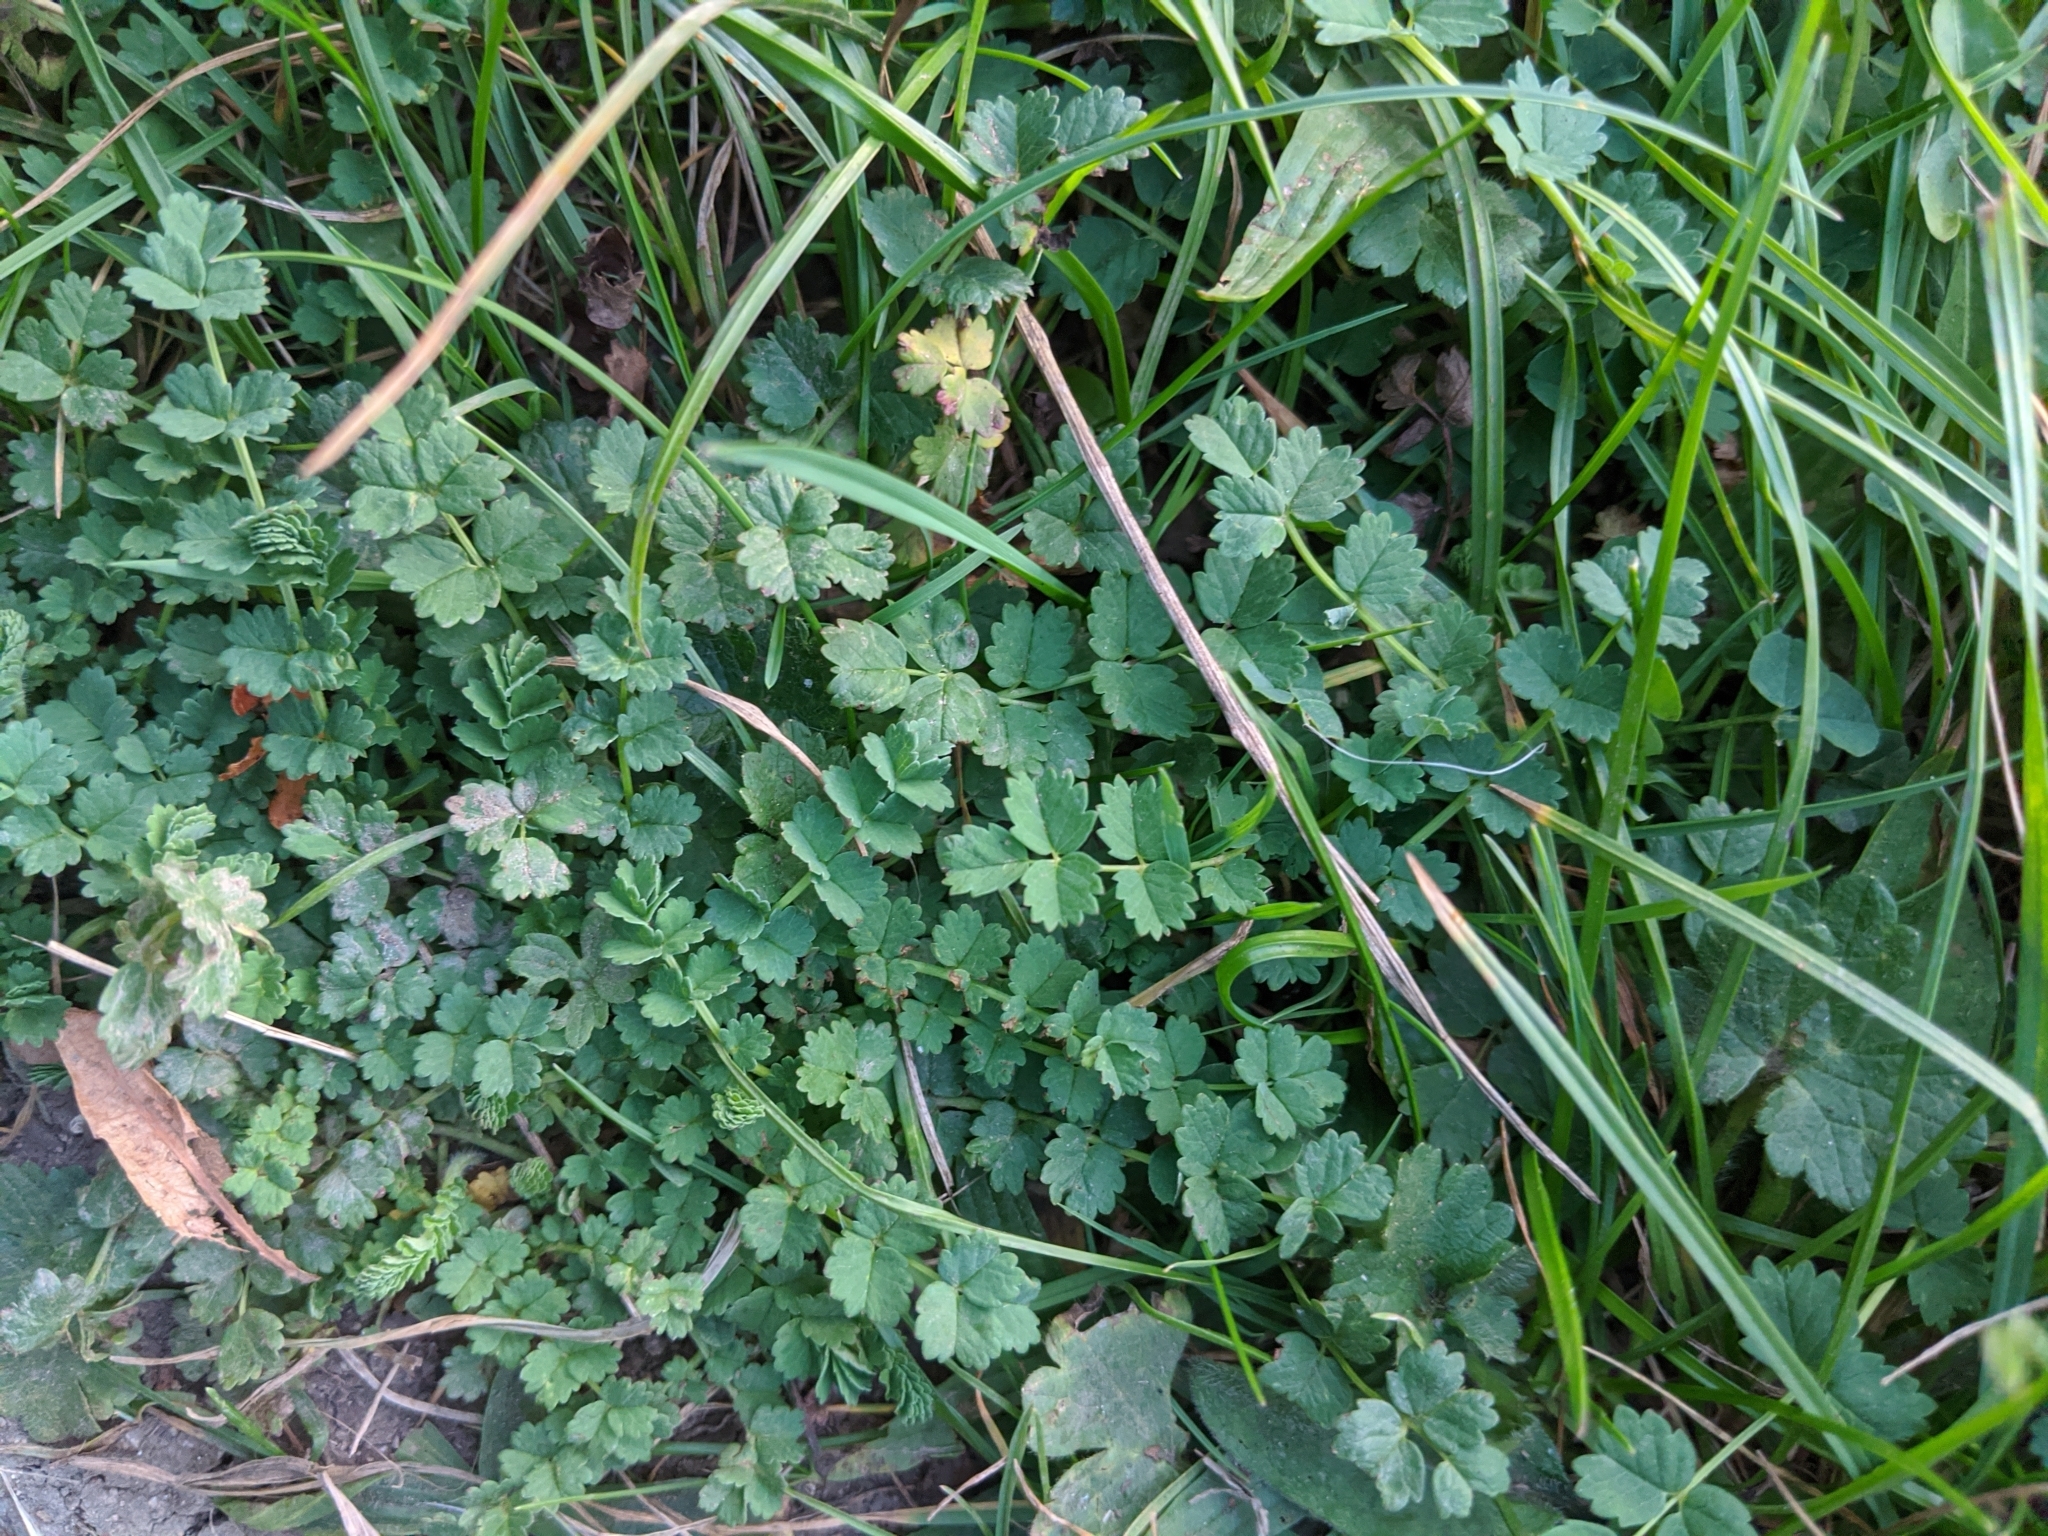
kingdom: Plantae
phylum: Tracheophyta
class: Magnoliopsida
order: Rosales
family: Rosaceae
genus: Poterium
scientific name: Poterium sanguisorba
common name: Salad burnet
